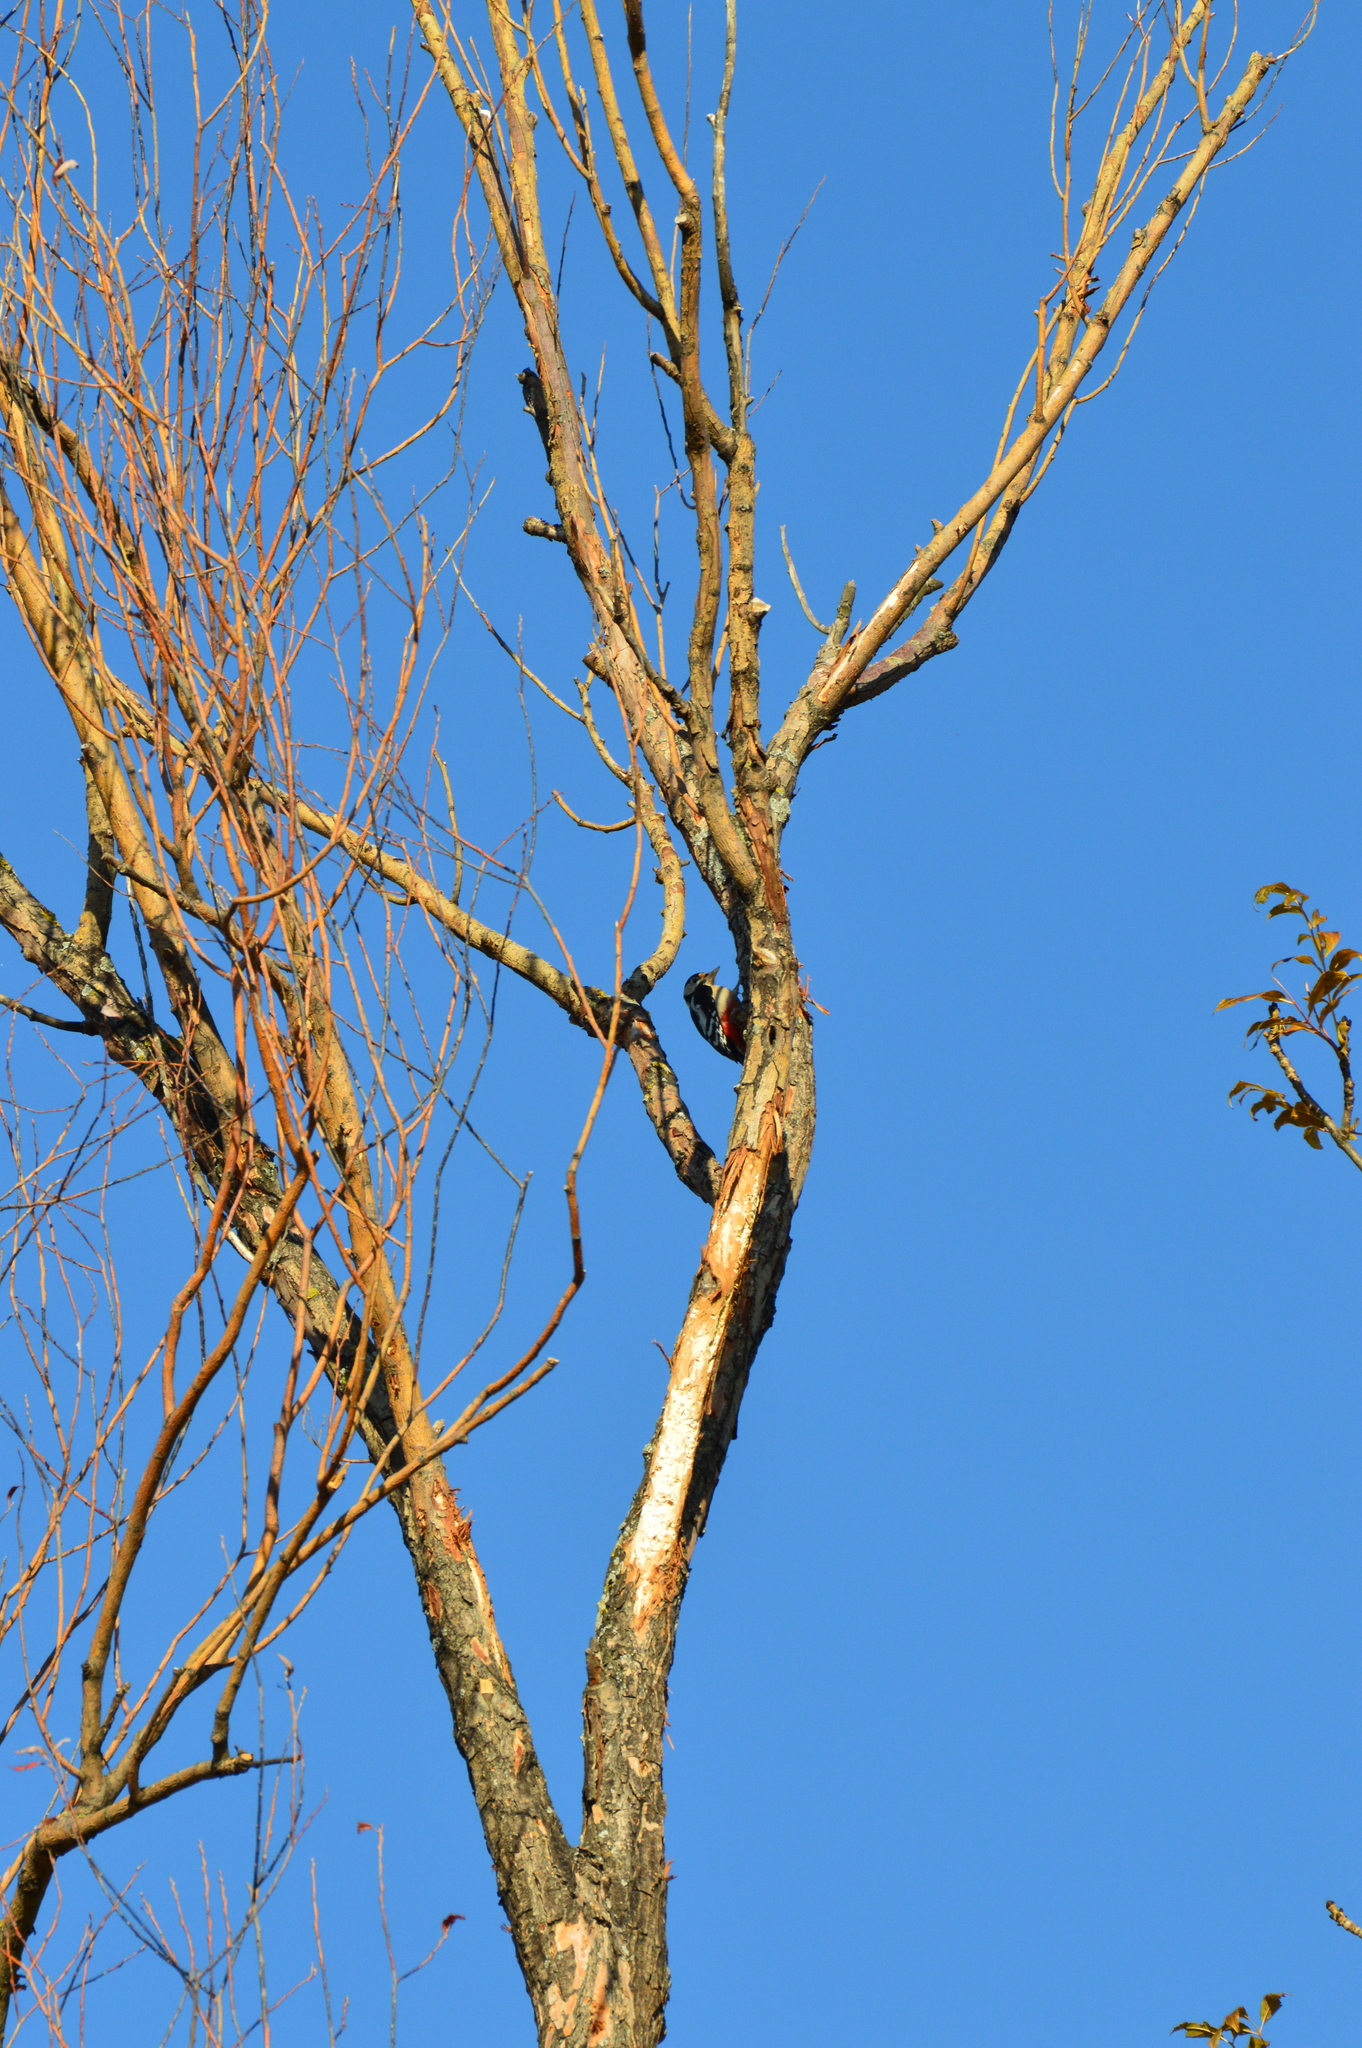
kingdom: Animalia
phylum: Chordata
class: Aves
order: Piciformes
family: Picidae
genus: Dendrocopos
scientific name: Dendrocopos major
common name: Great spotted woodpecker
